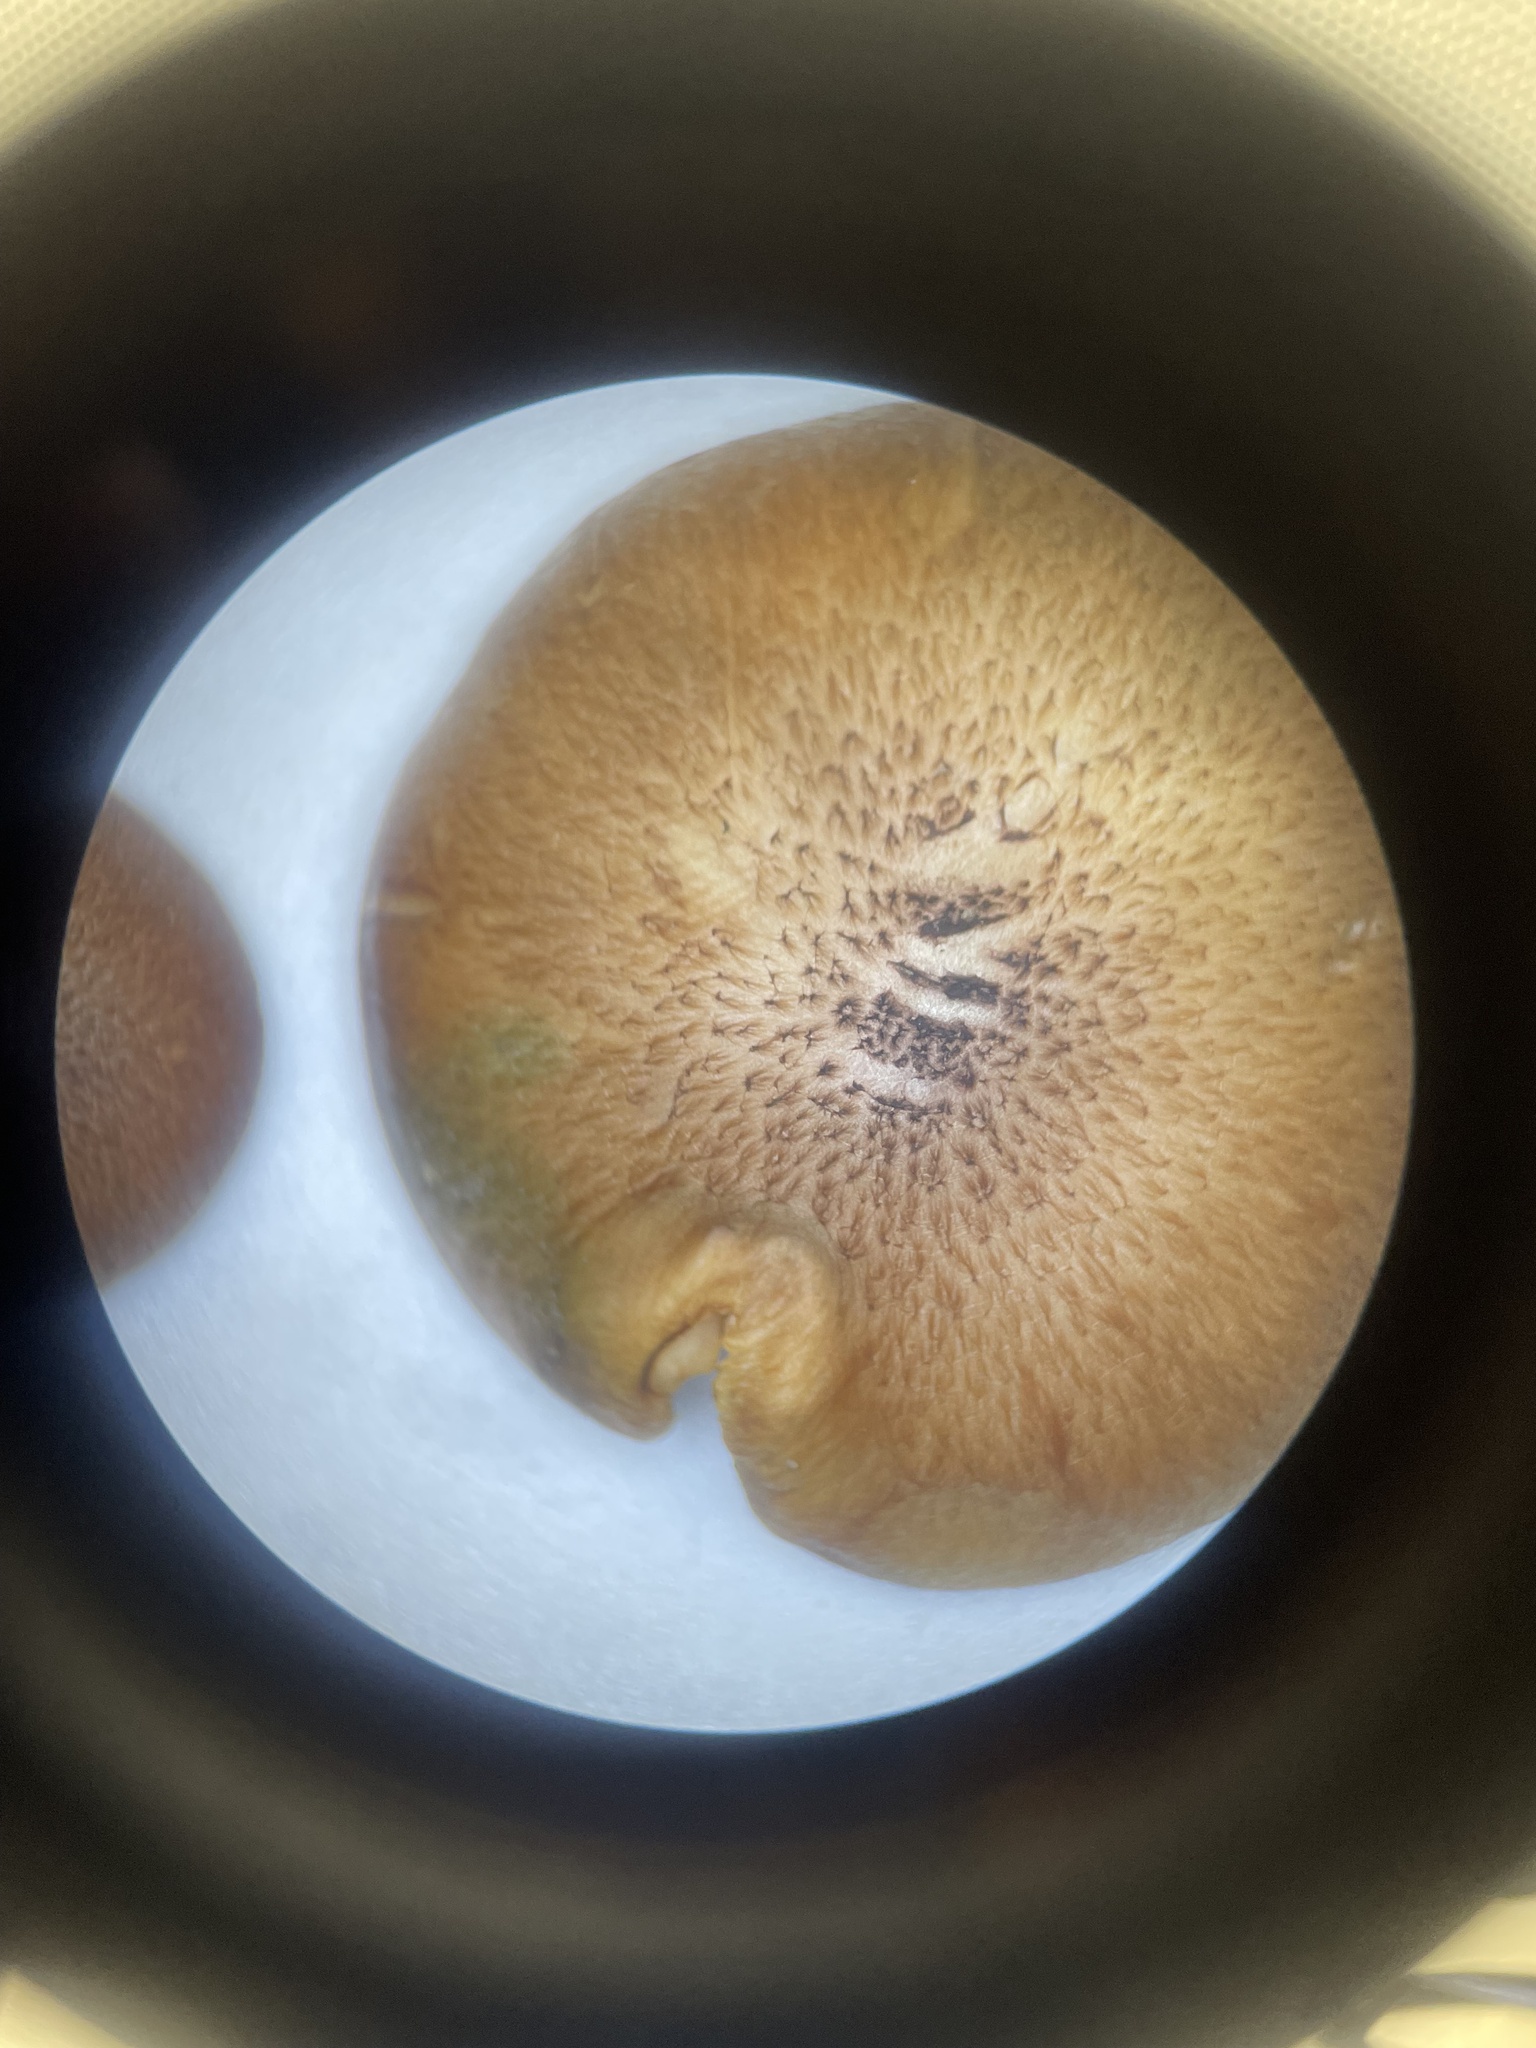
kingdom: Fungi
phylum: Basidiomycota
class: Agaricomycetes
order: Agaricales
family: Hymenogastraceae
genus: Gymnopilus
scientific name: Gymnopilus luteofolius
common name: Yellow-gilled gymnopilus
